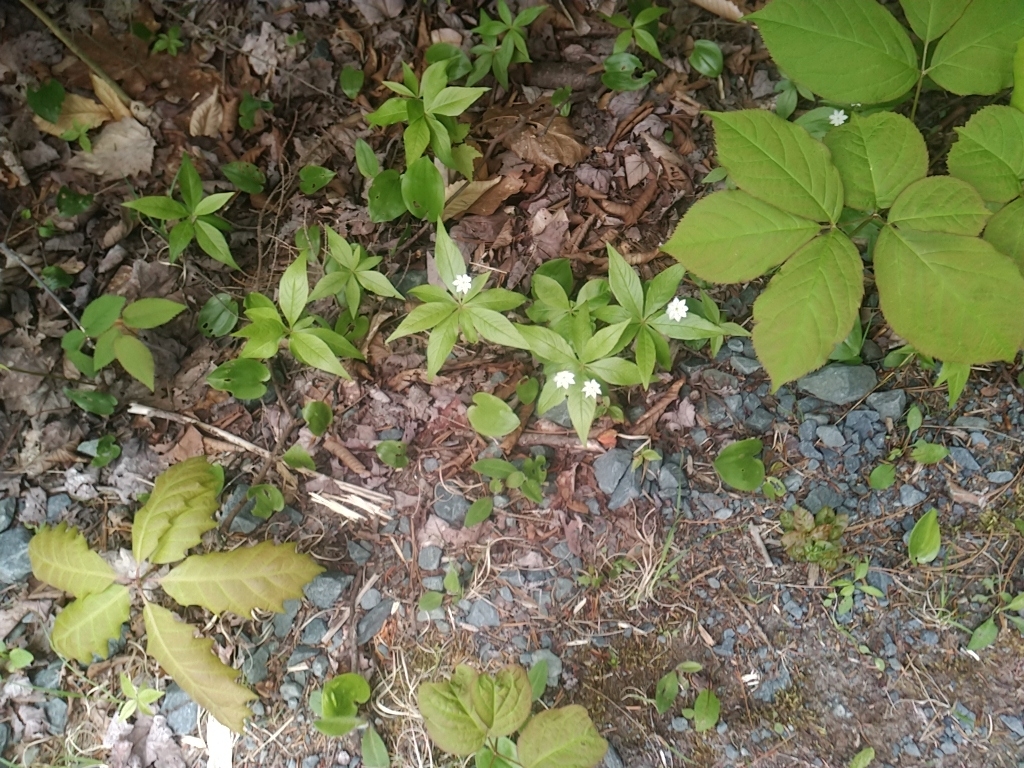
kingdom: Plantae
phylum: Tracheophyta
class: Magnoliopsida
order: Cornales
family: Cornaceae
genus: Cornus
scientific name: Cornus canadensis
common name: Creeping dogwood
